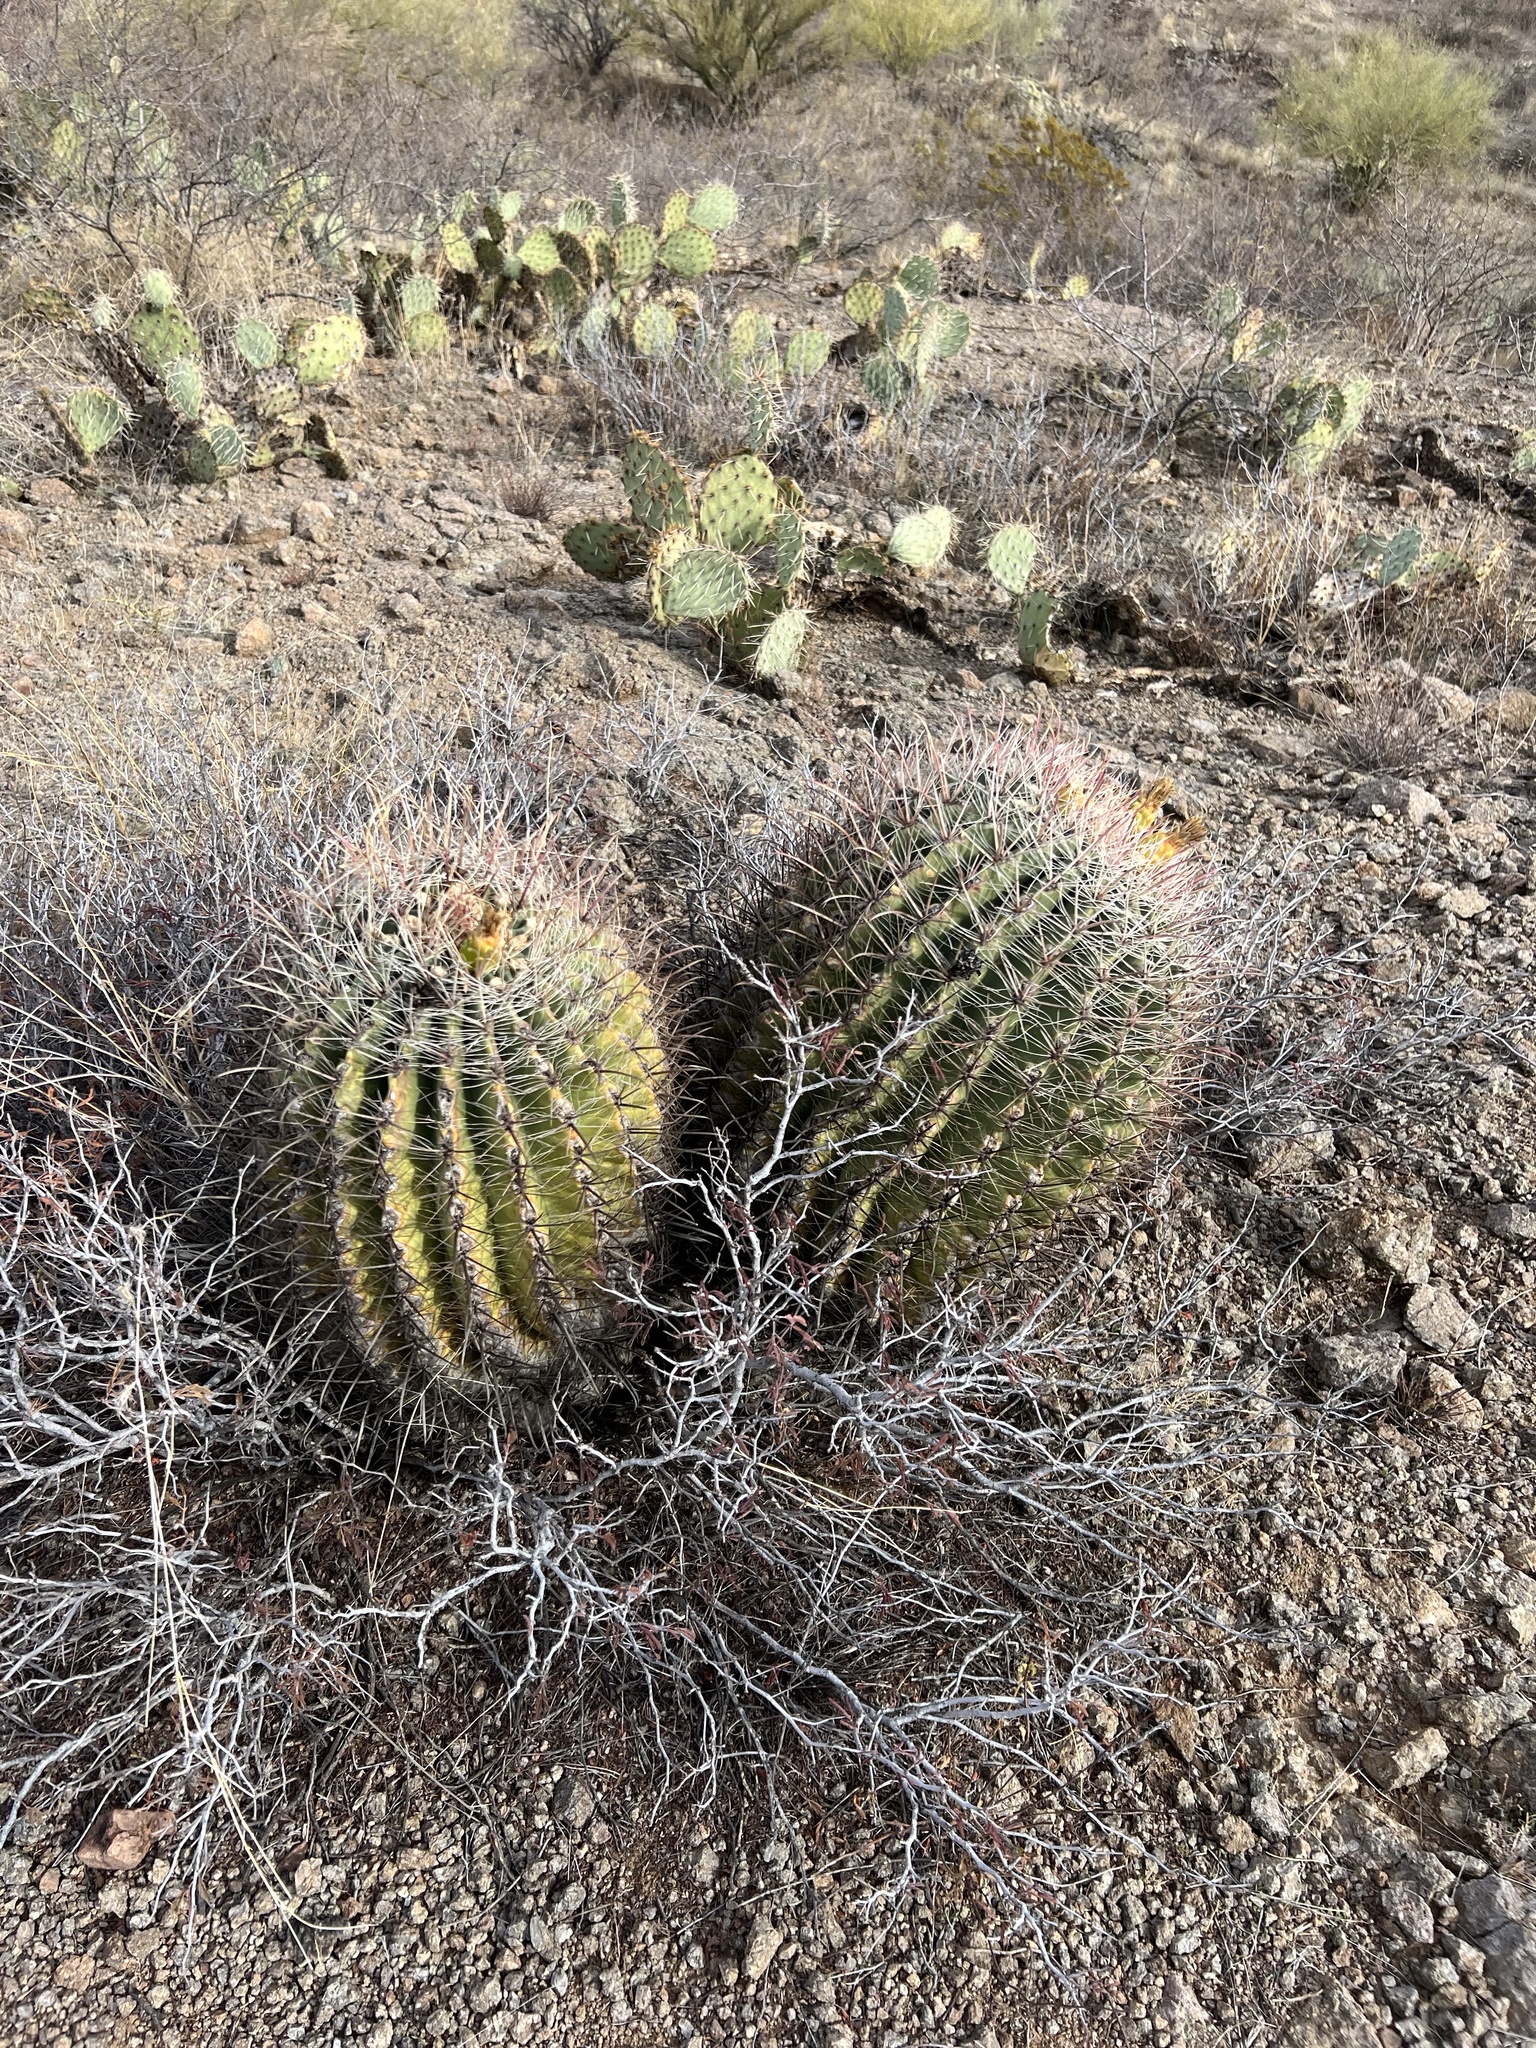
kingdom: Plantae
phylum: Tracheophyta
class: Magnoliopsida
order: Caryophyllales
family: Cactaceae
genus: Ferocactus
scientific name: Ferocactus wislizeni
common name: Candy barrel cactus
